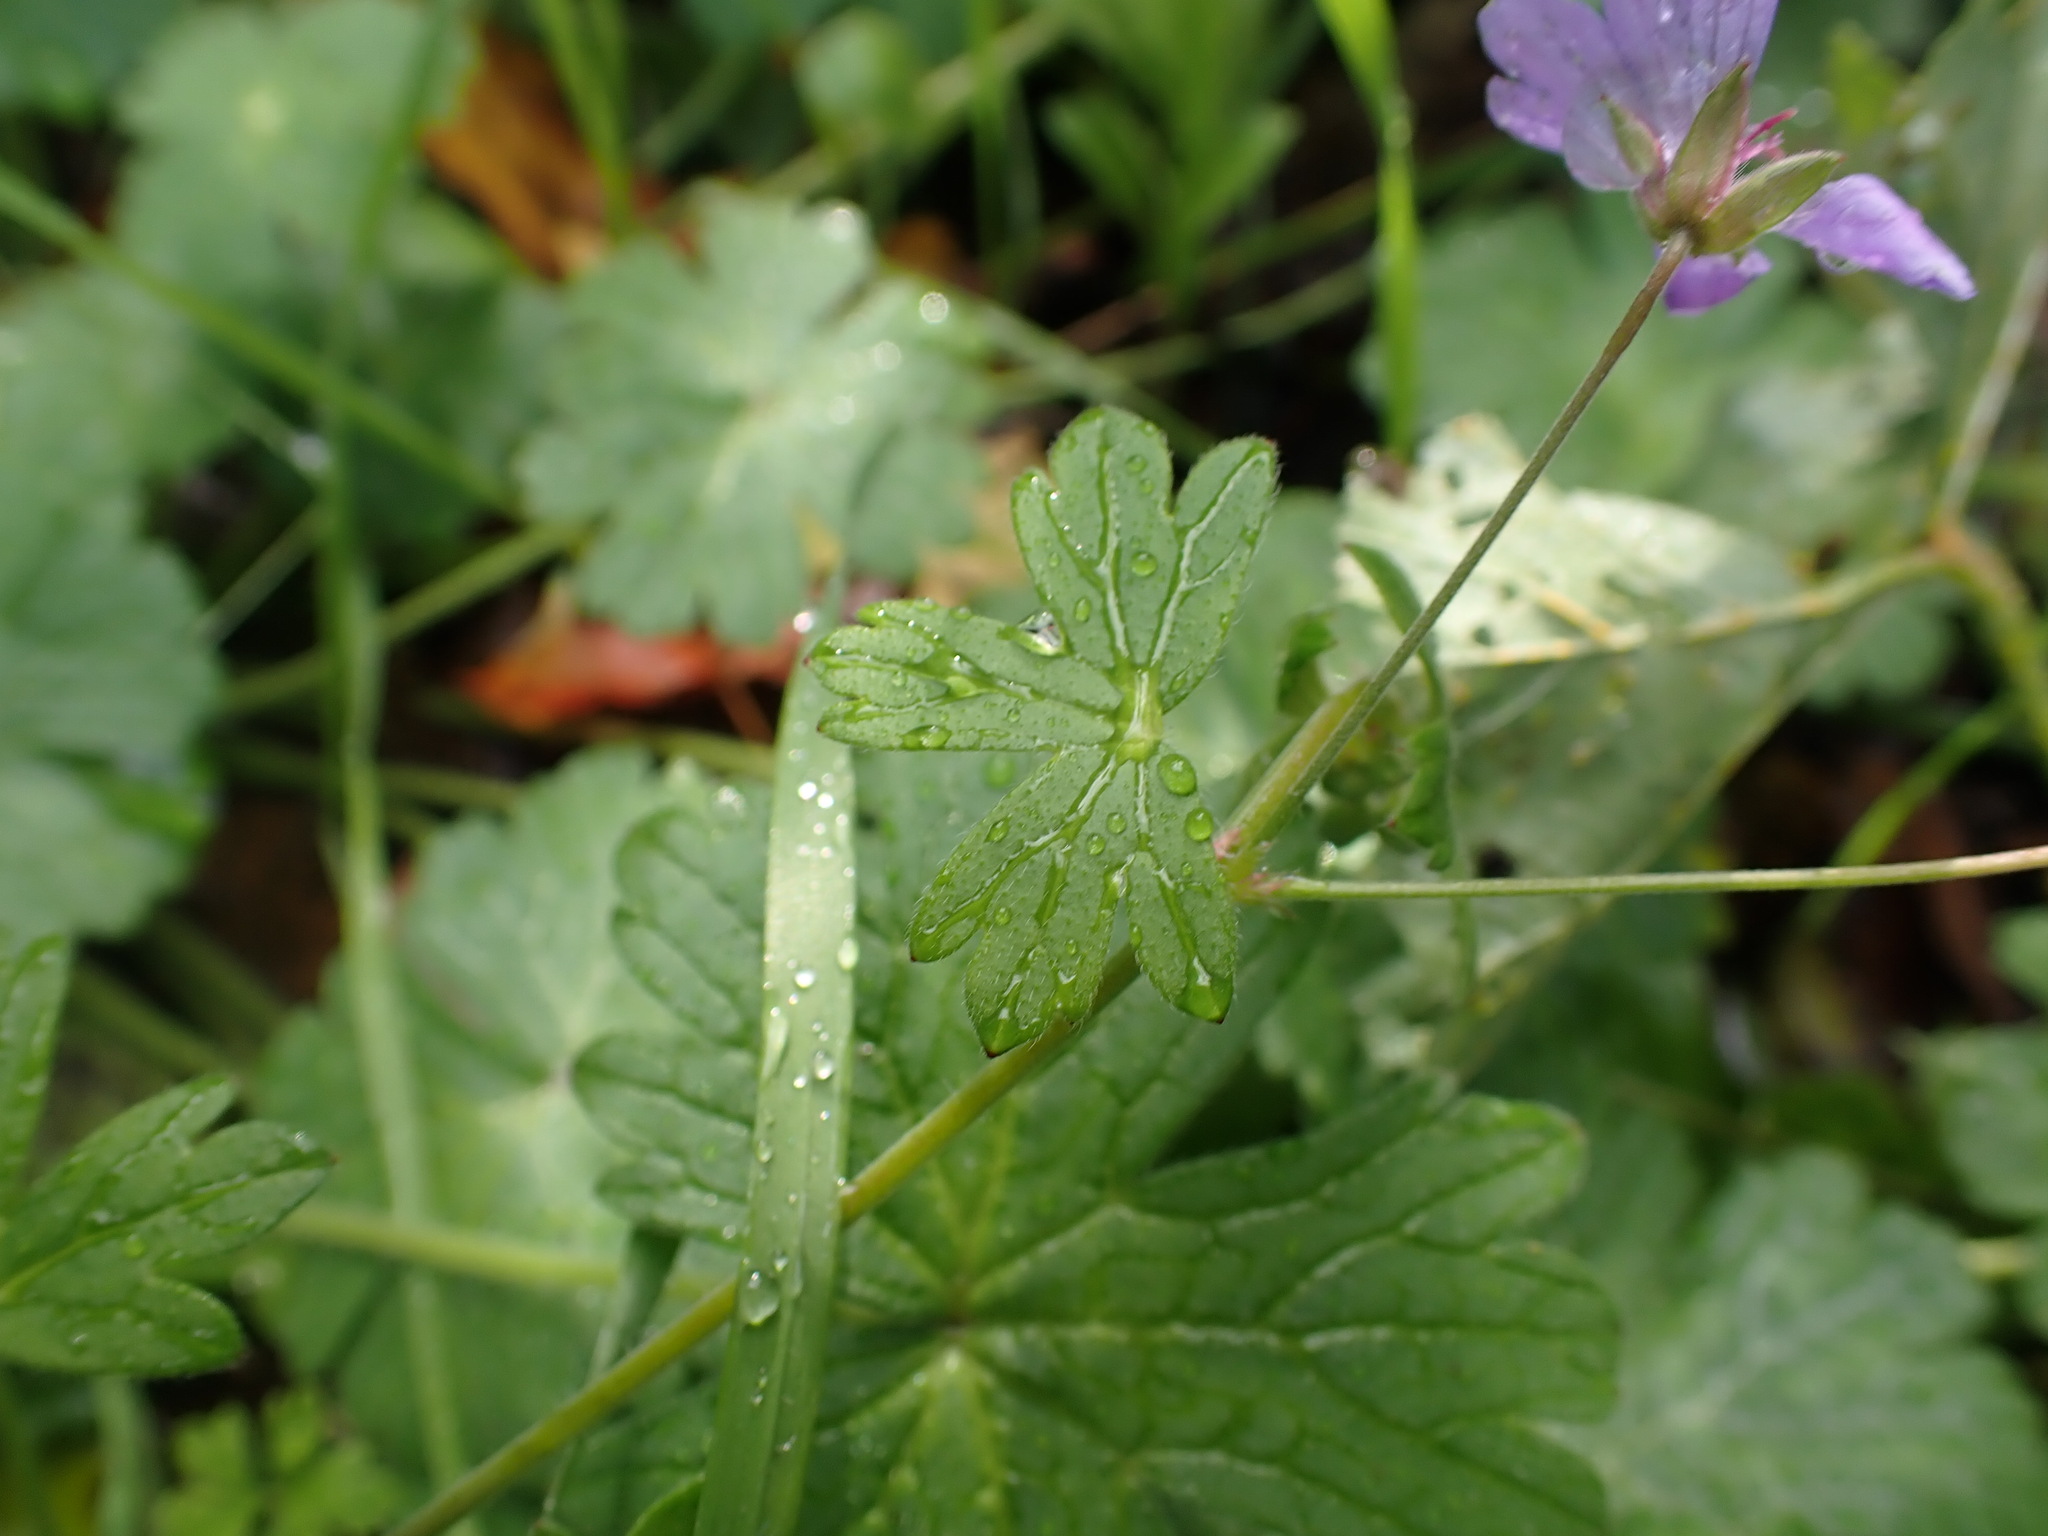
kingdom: Plantae
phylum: Tracheophyta
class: Magnoliopsida
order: Geraniales
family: Geraniaceae
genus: Geranium
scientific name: Geranium nodosum
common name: Knotted crane's-bill
